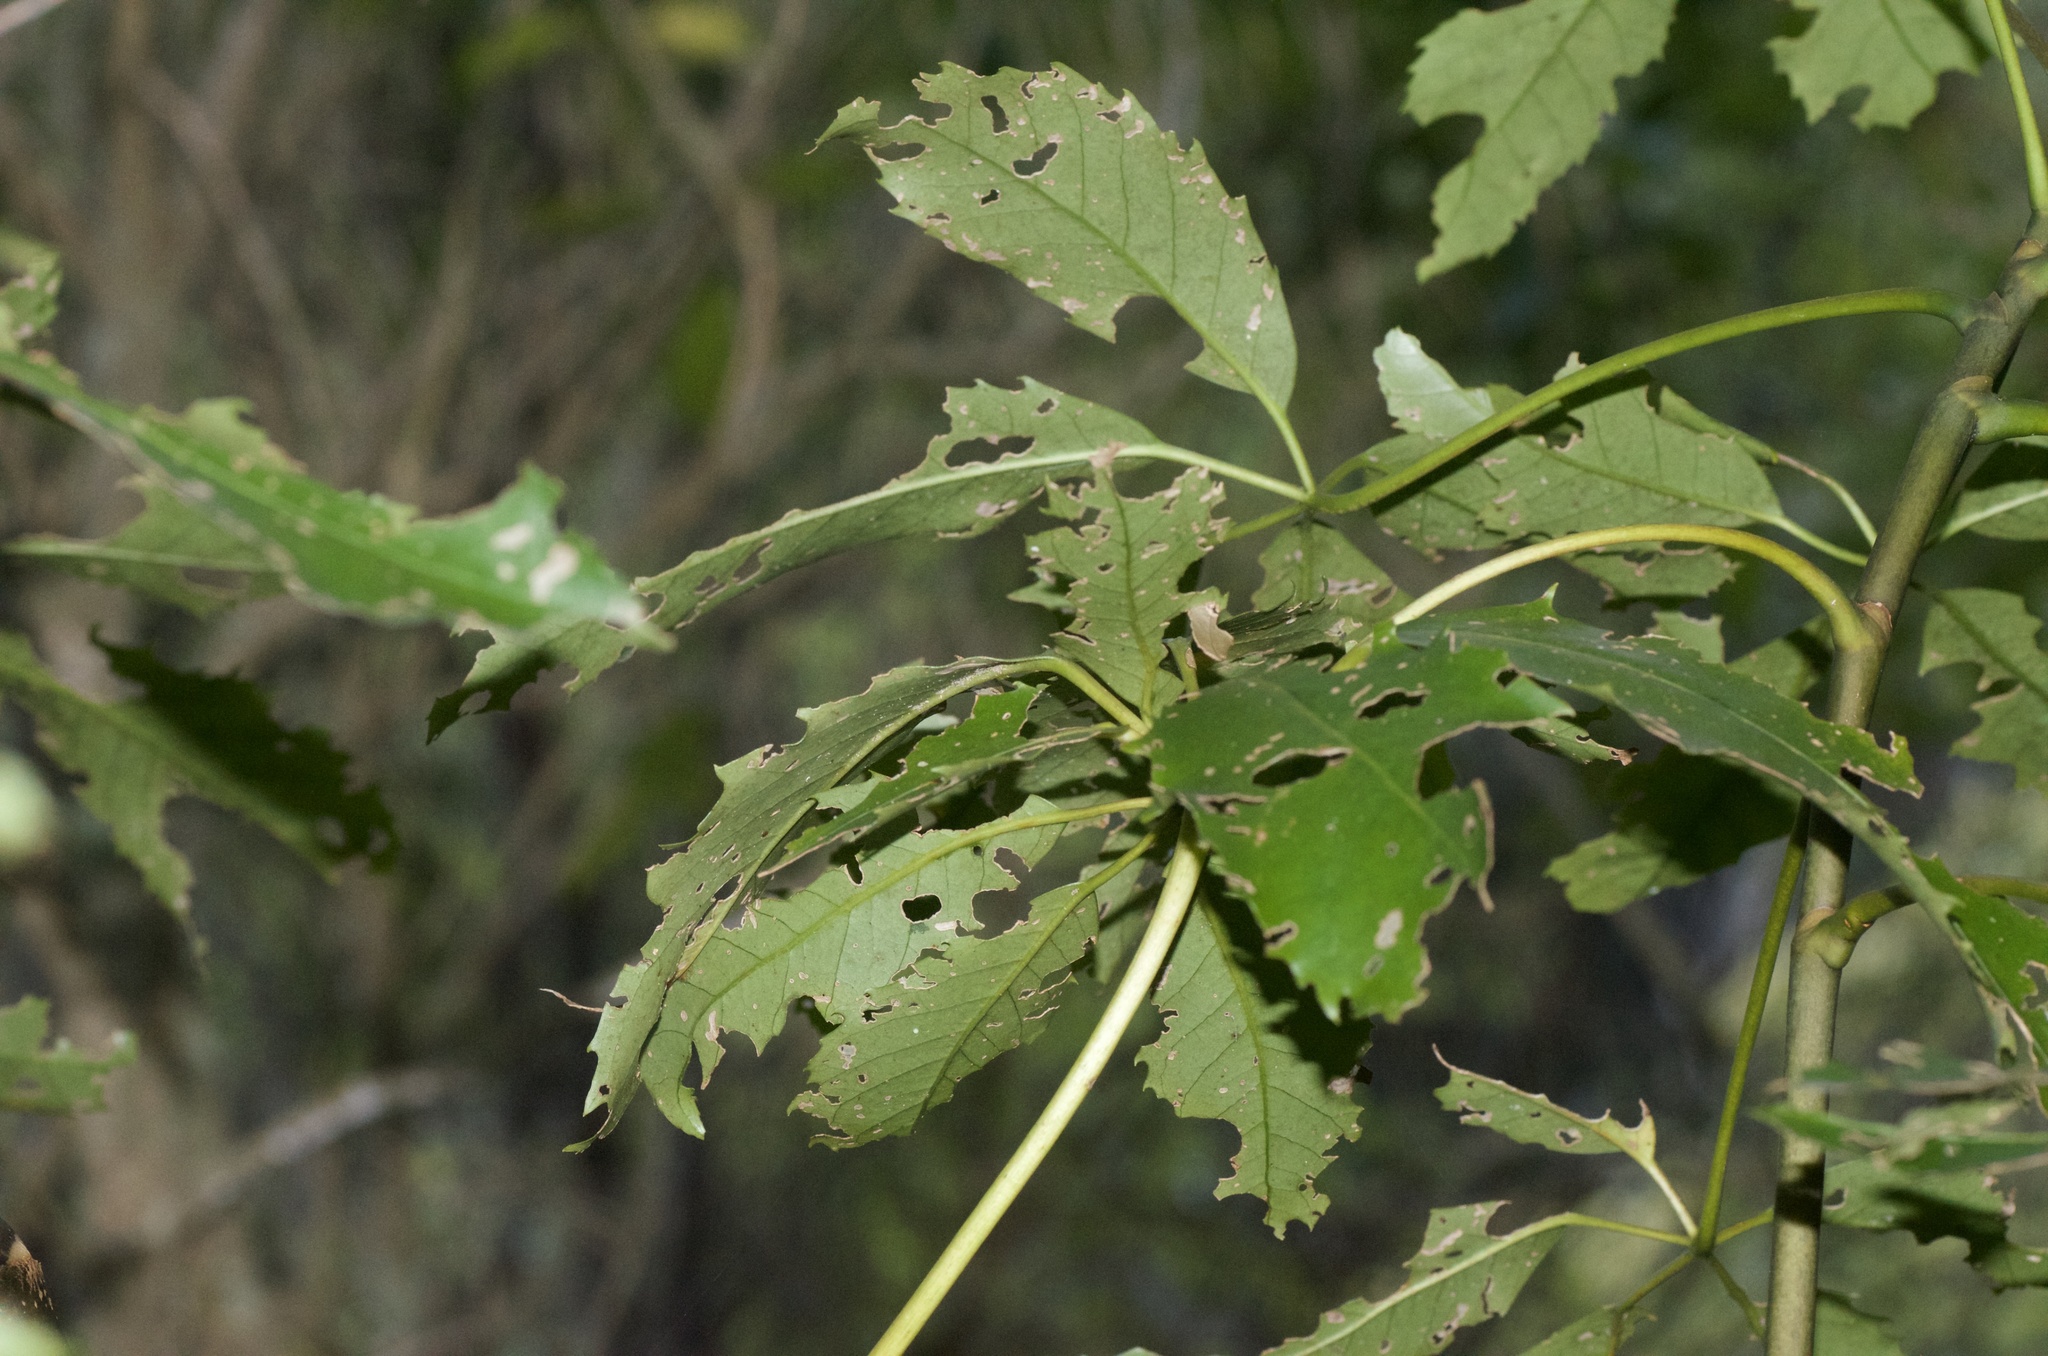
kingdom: Plantae
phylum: Tracheophyta
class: Magnoliopsida
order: Apiales
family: Araliaceae
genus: Neopanax
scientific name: Neopanax arboreus
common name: Five-fingers
